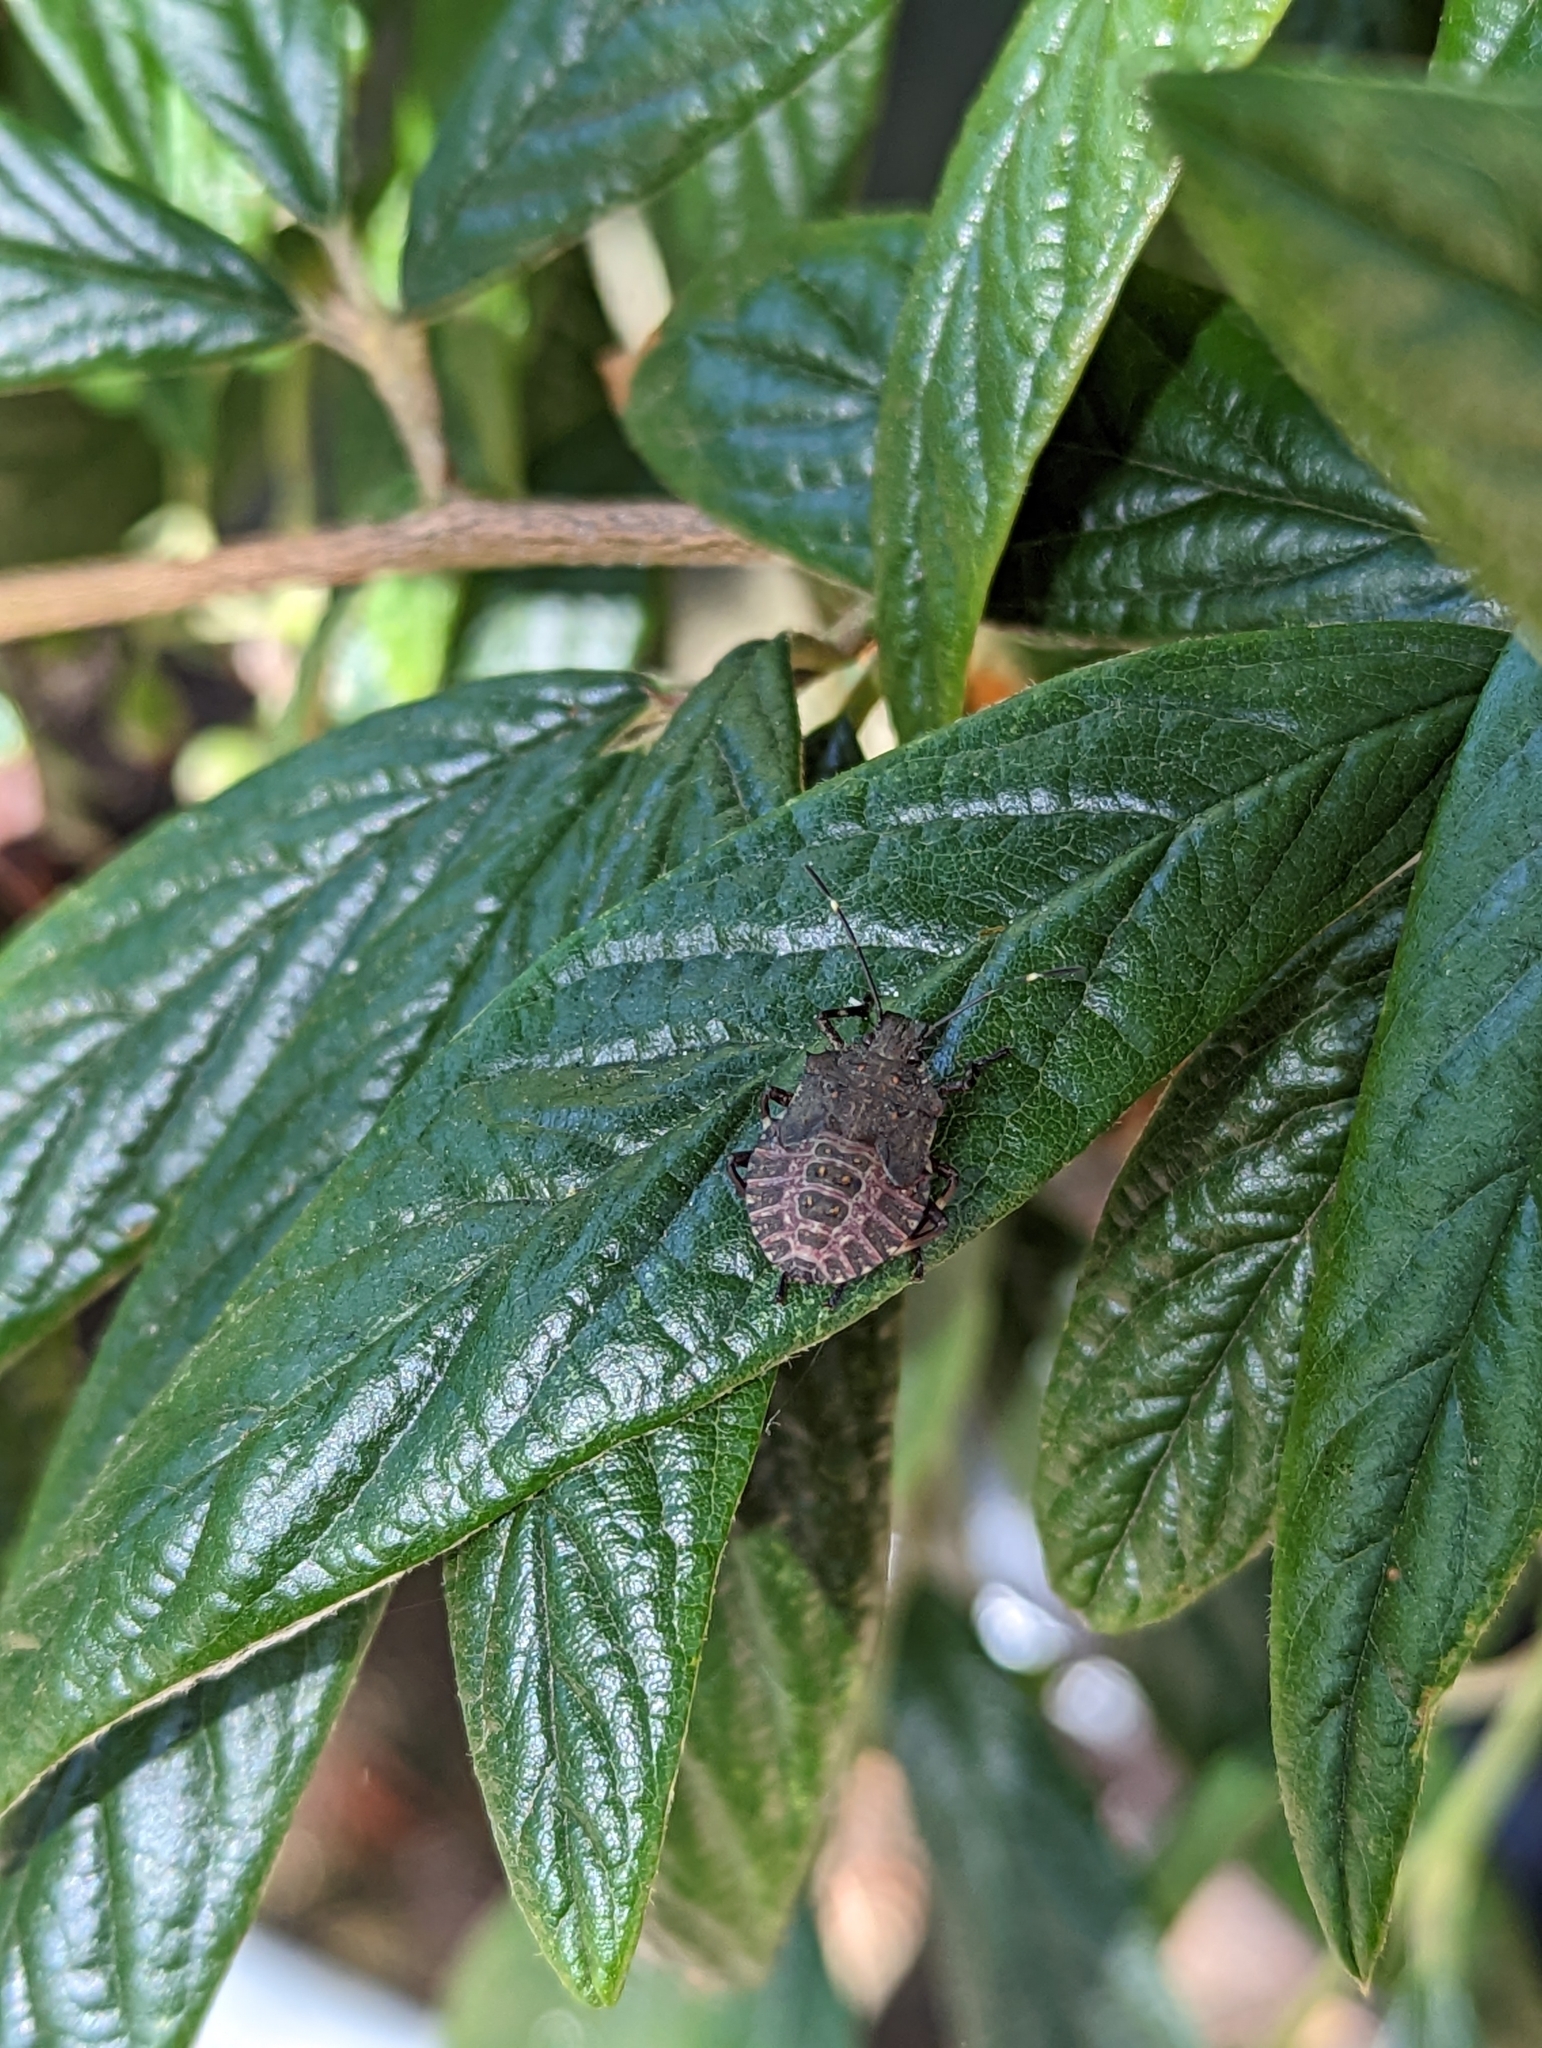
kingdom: Animalia
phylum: Arthropoda
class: Insecta
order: Hemiptera
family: Pentatomidae
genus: Halyomorpha
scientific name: Halyomorpha halys
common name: Brown marmorated stink bug
